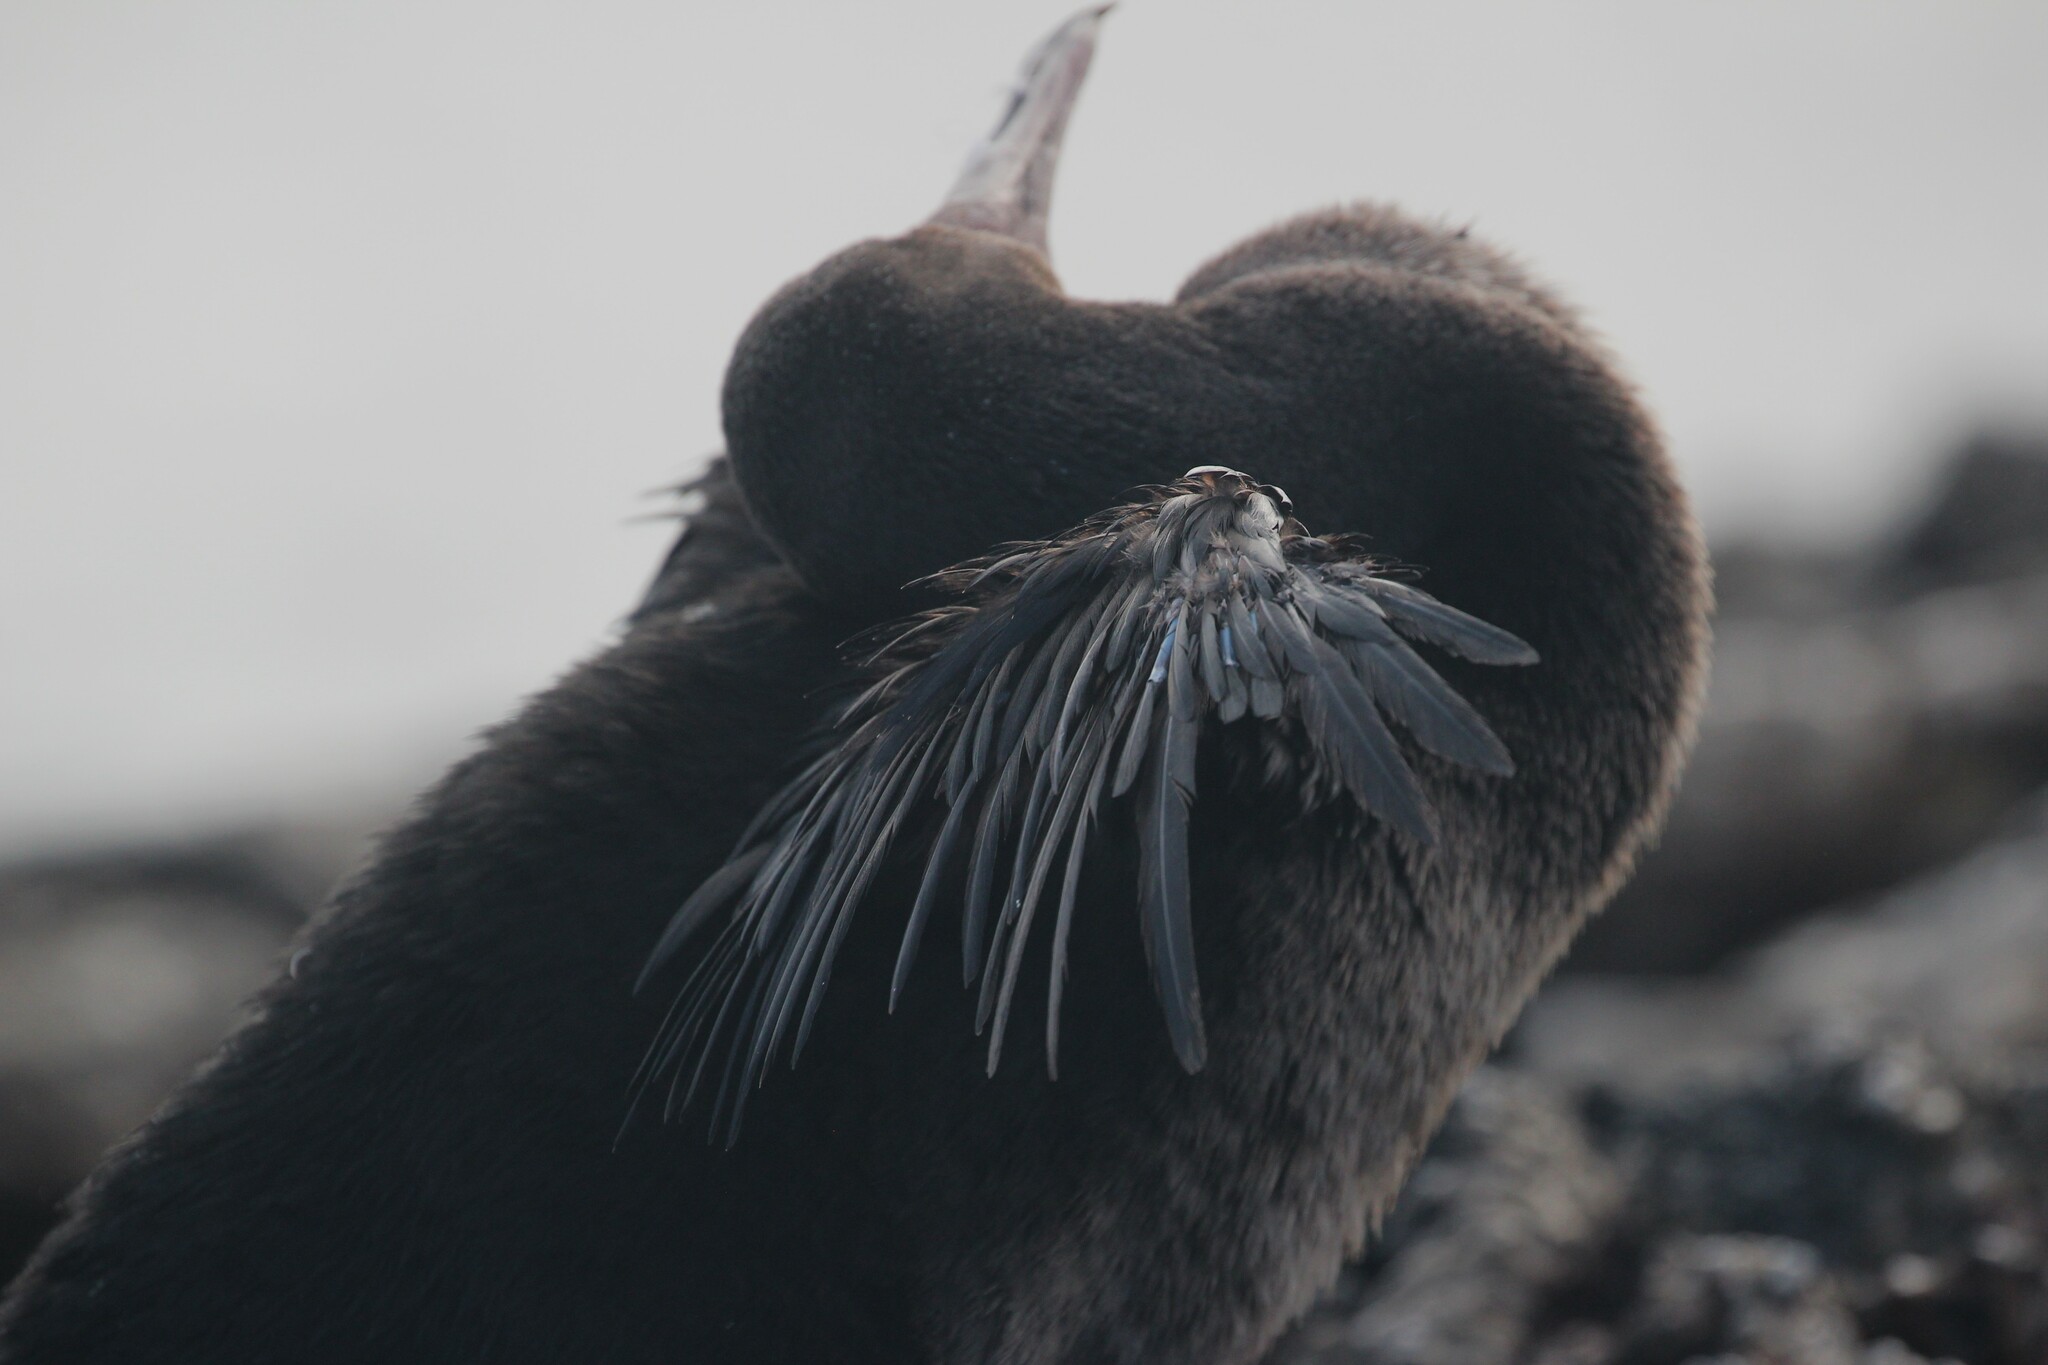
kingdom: Animalia
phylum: Chordata
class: Aves
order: Suliformes
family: Phalacrocoracidae
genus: Phalacrocorax
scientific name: Phalacrocorax harrisi
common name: Flightless cormorant
